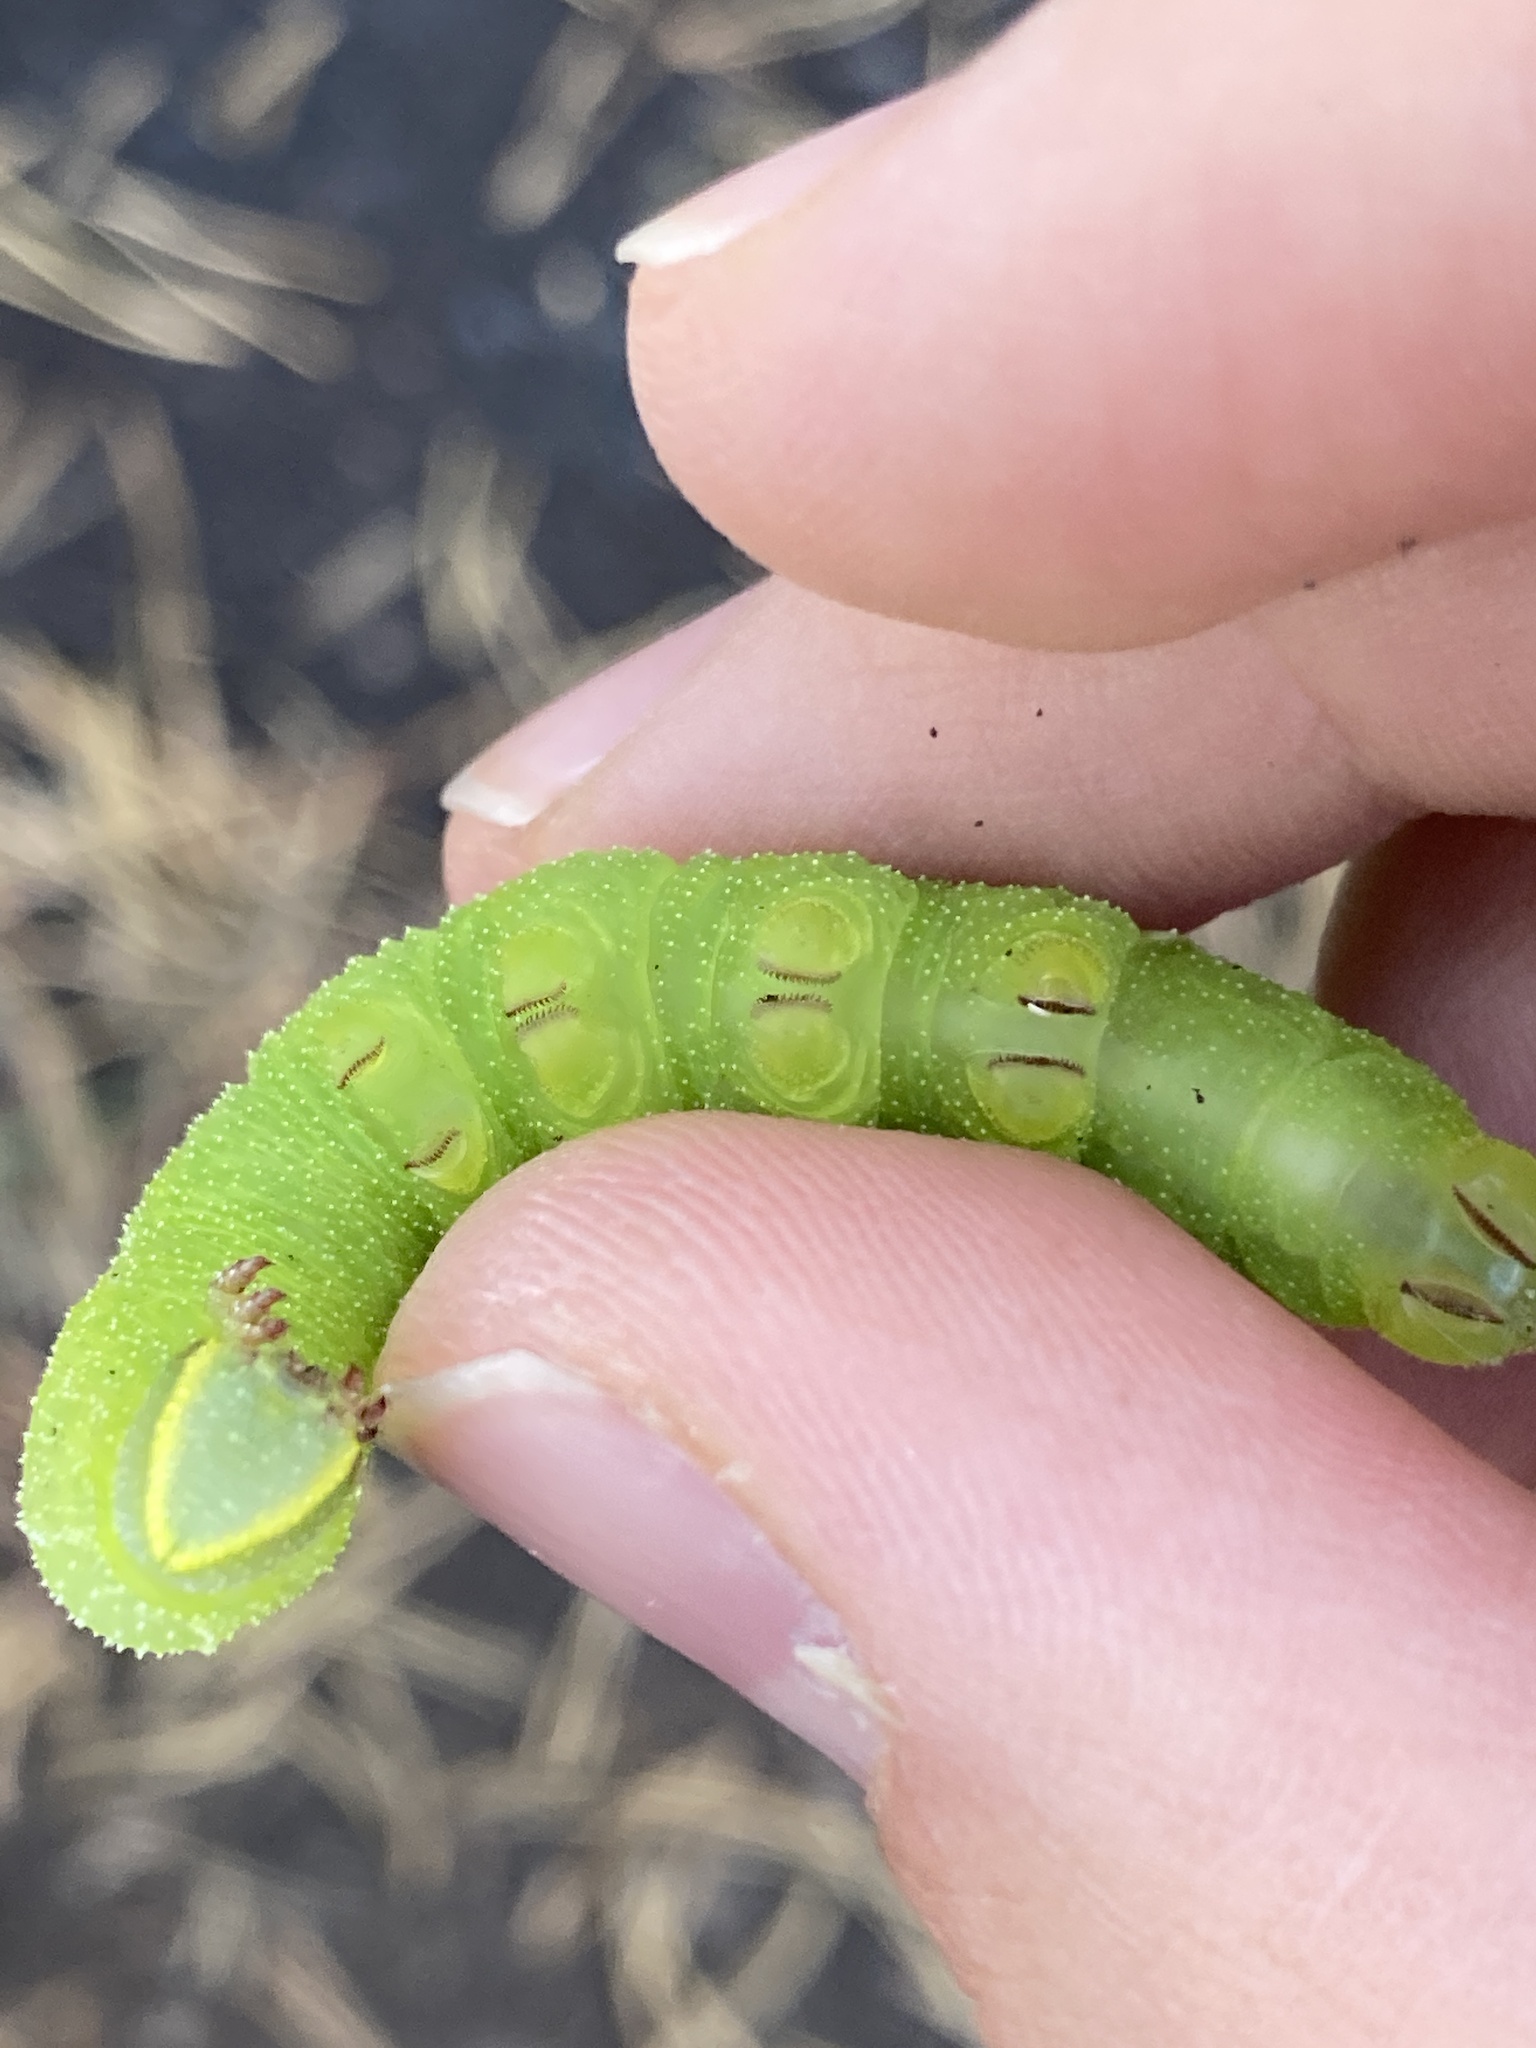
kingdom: Animalia
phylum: Arthropoda
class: Insecta
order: Lepidoptera
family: Sphingidae
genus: Smerinthus
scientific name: Smerinthus ocellata
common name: Eyed hawk-moth
